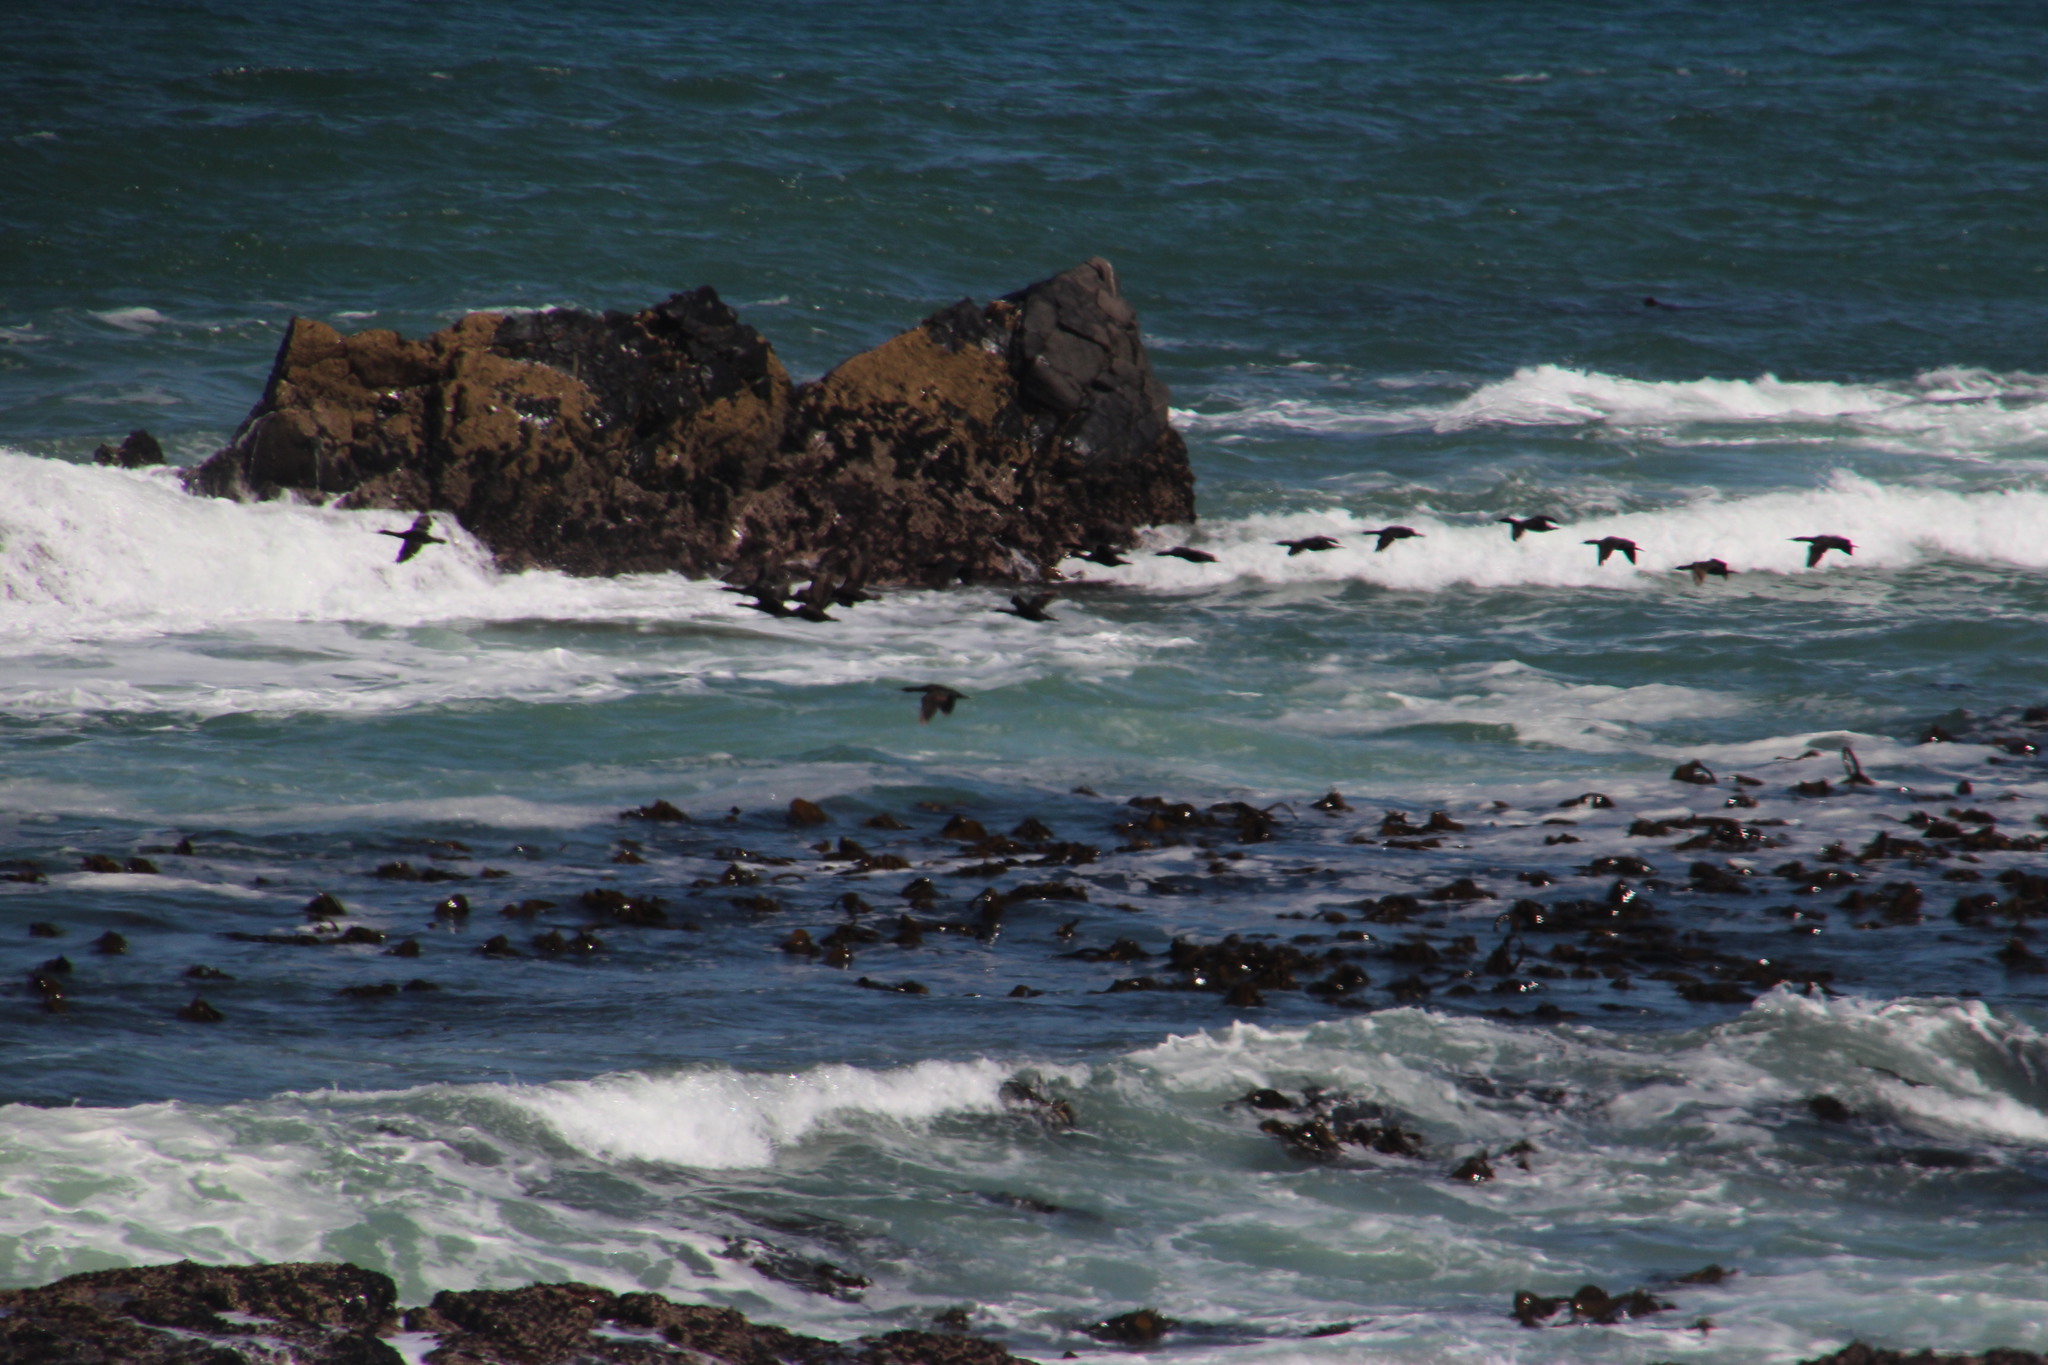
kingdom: Animalia
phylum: Chordata
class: Aves
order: Suliformes
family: Phalacrocoracidae
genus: Phalacrocorax
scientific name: Phalacrocorax capensis
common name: Cape cormorant
